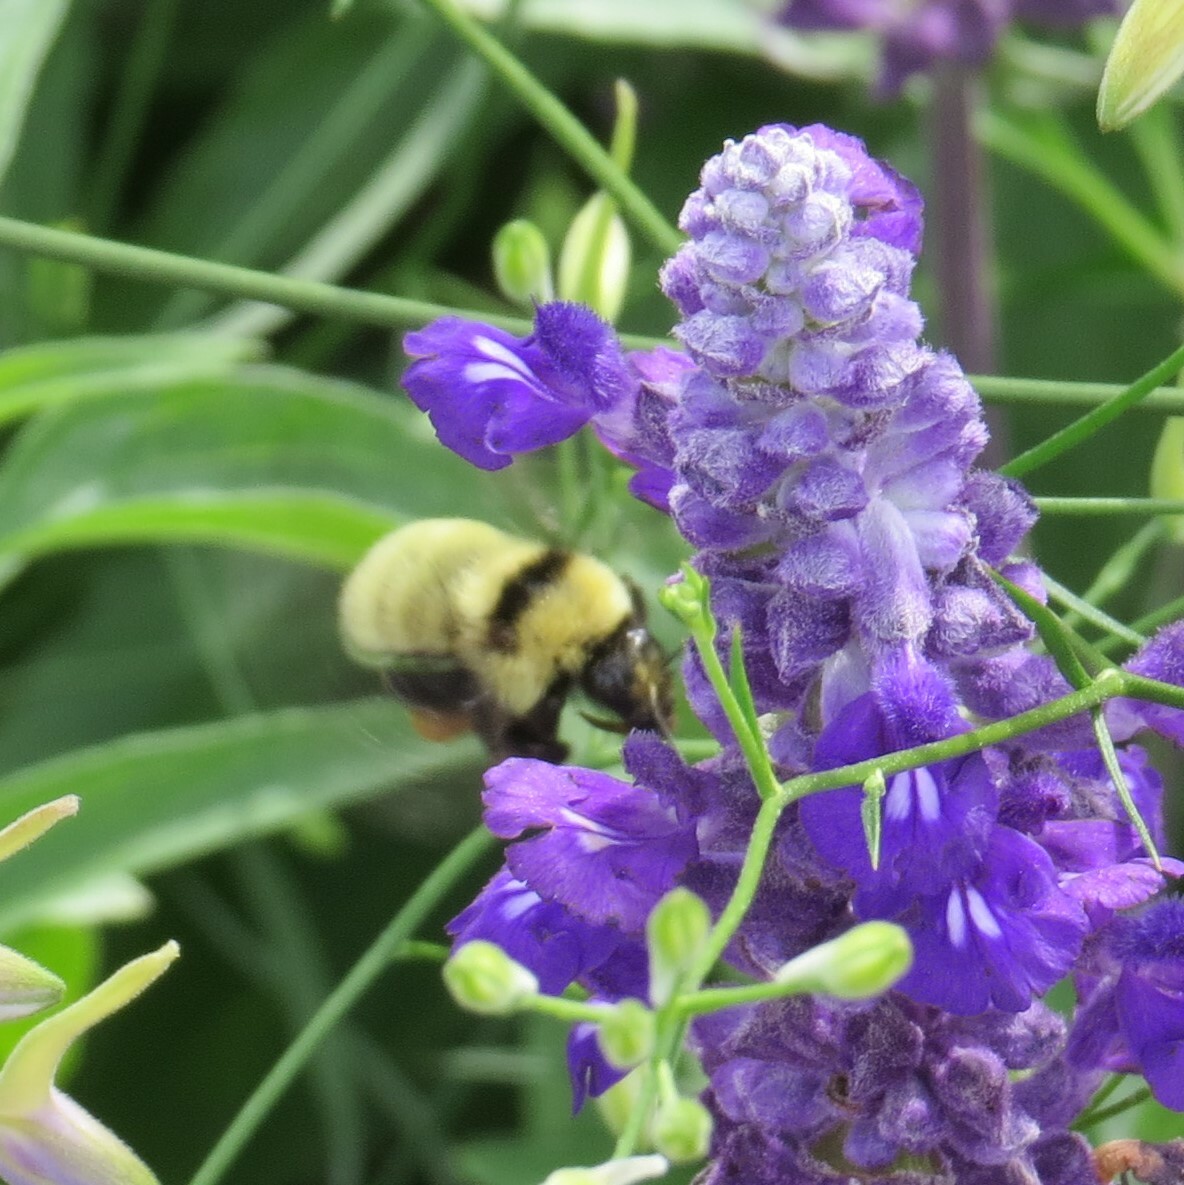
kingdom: Animalia
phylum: Arthropoda
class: Insecta
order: Hymenoptera
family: Apidae
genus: Bombus
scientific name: Bombus fervidus
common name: Yellow bumble bee
